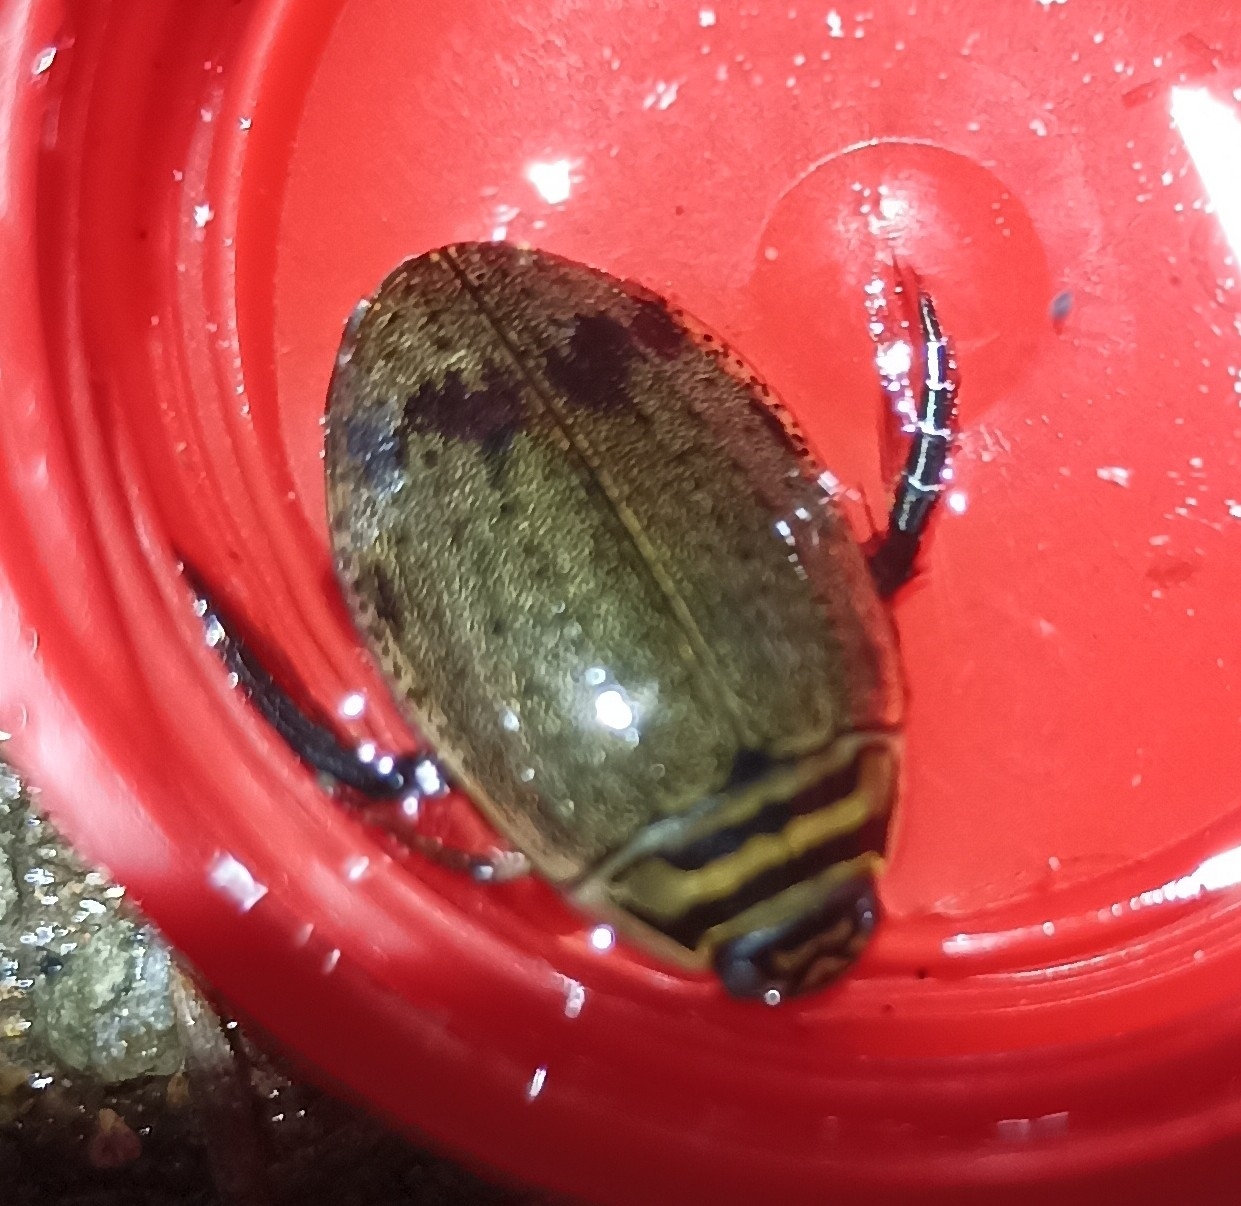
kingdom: Animalia
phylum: Arthropoda
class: Insecta
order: Coleoptera
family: Dytiscidae
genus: Acilius
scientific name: Acilius sulcatus
